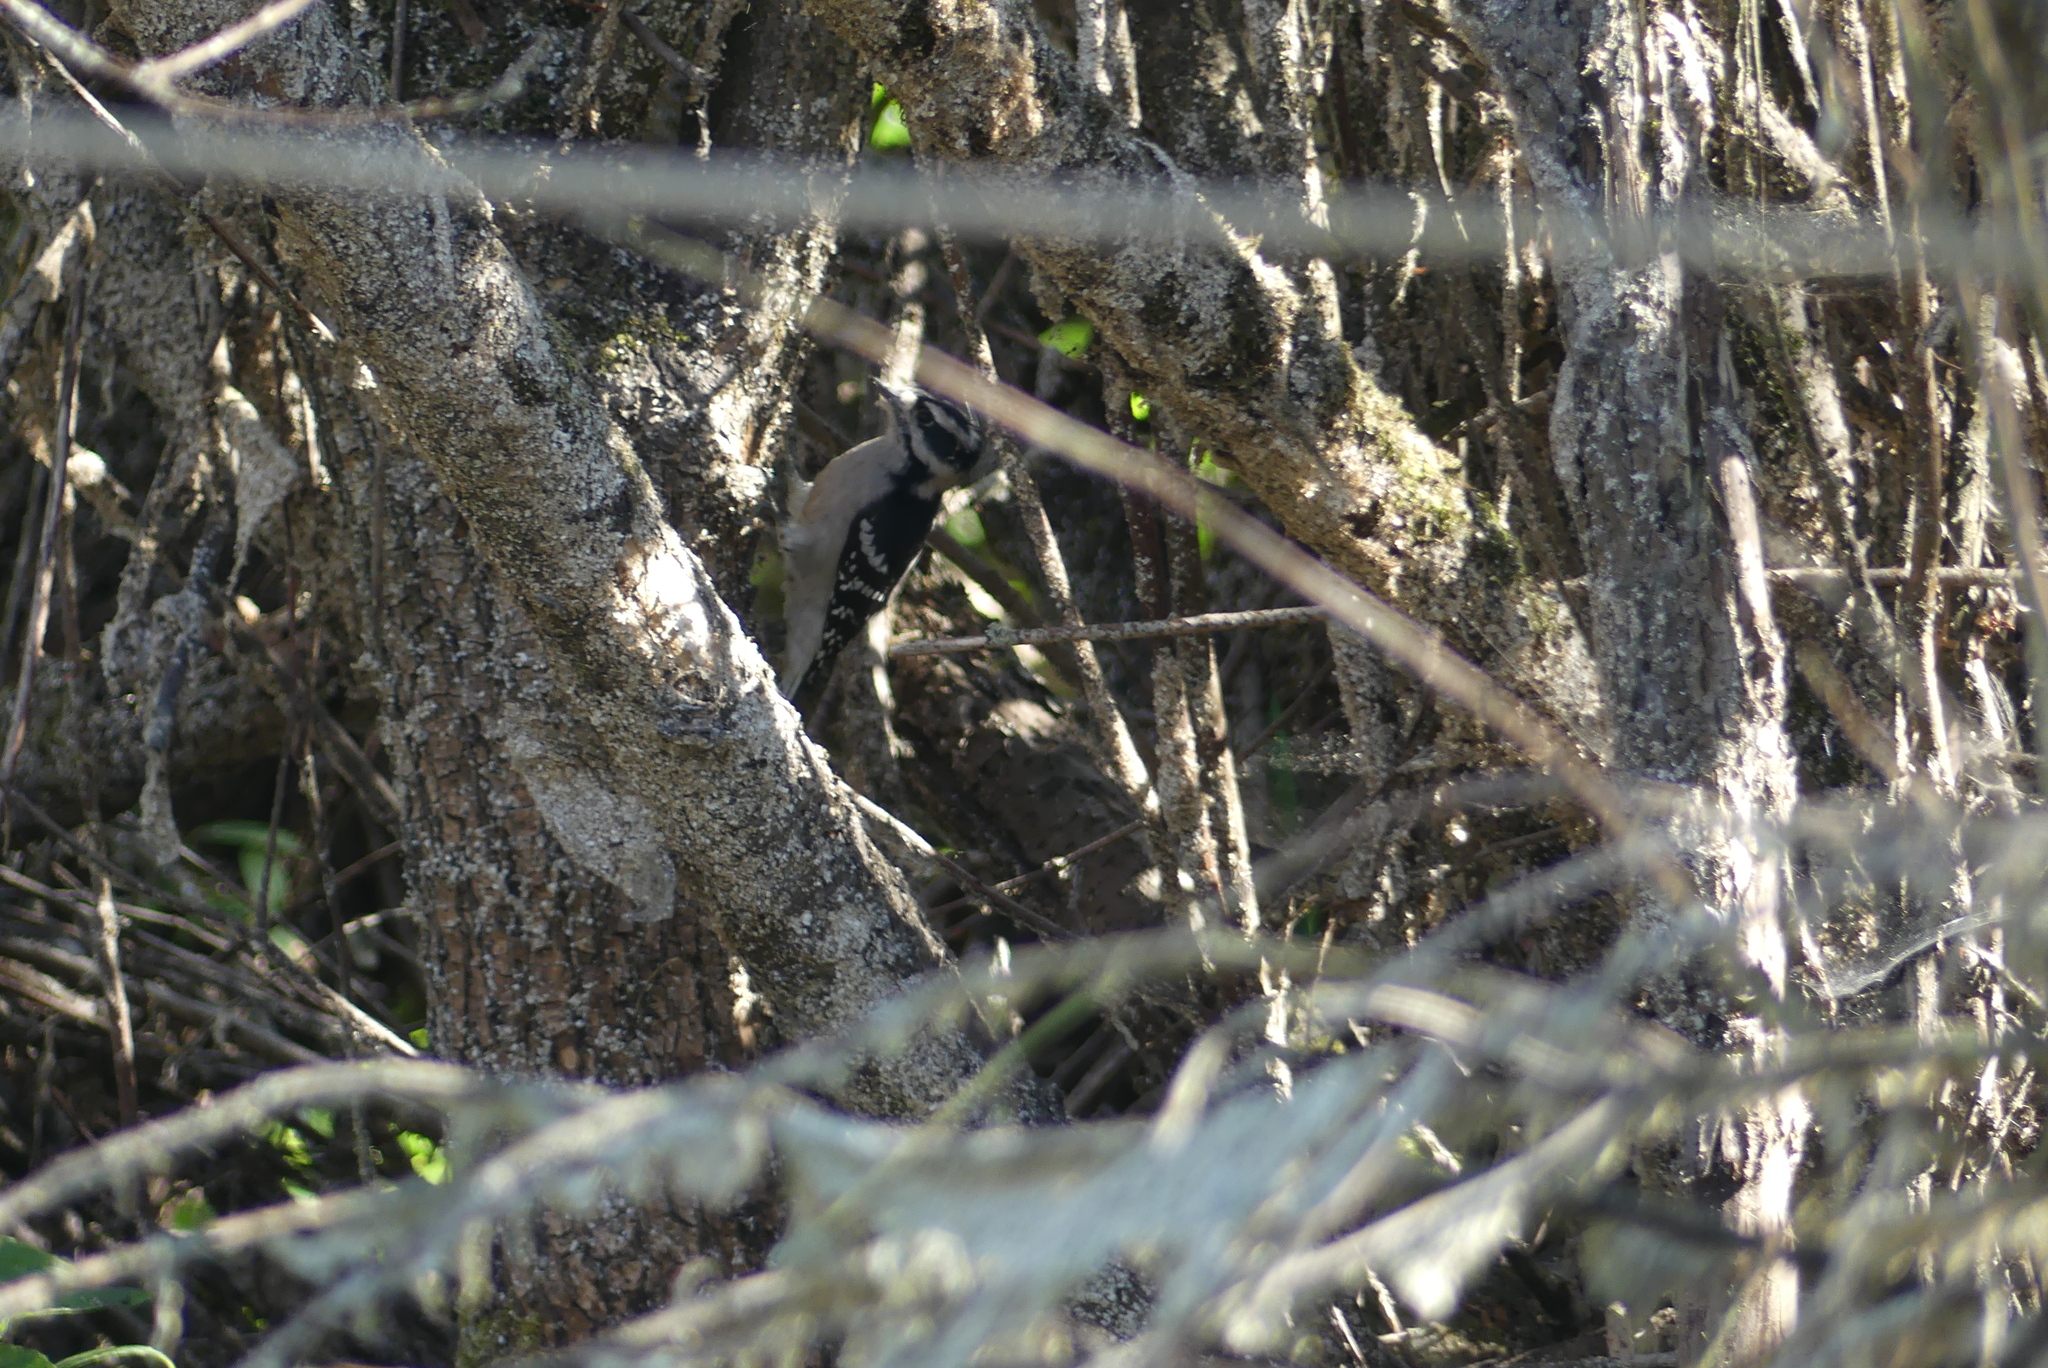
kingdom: Animalia
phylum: Chordata
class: Aves
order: Piciformes
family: Picidae
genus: Dryobates
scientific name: Dryobates pubescens
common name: Downy woodpecker
